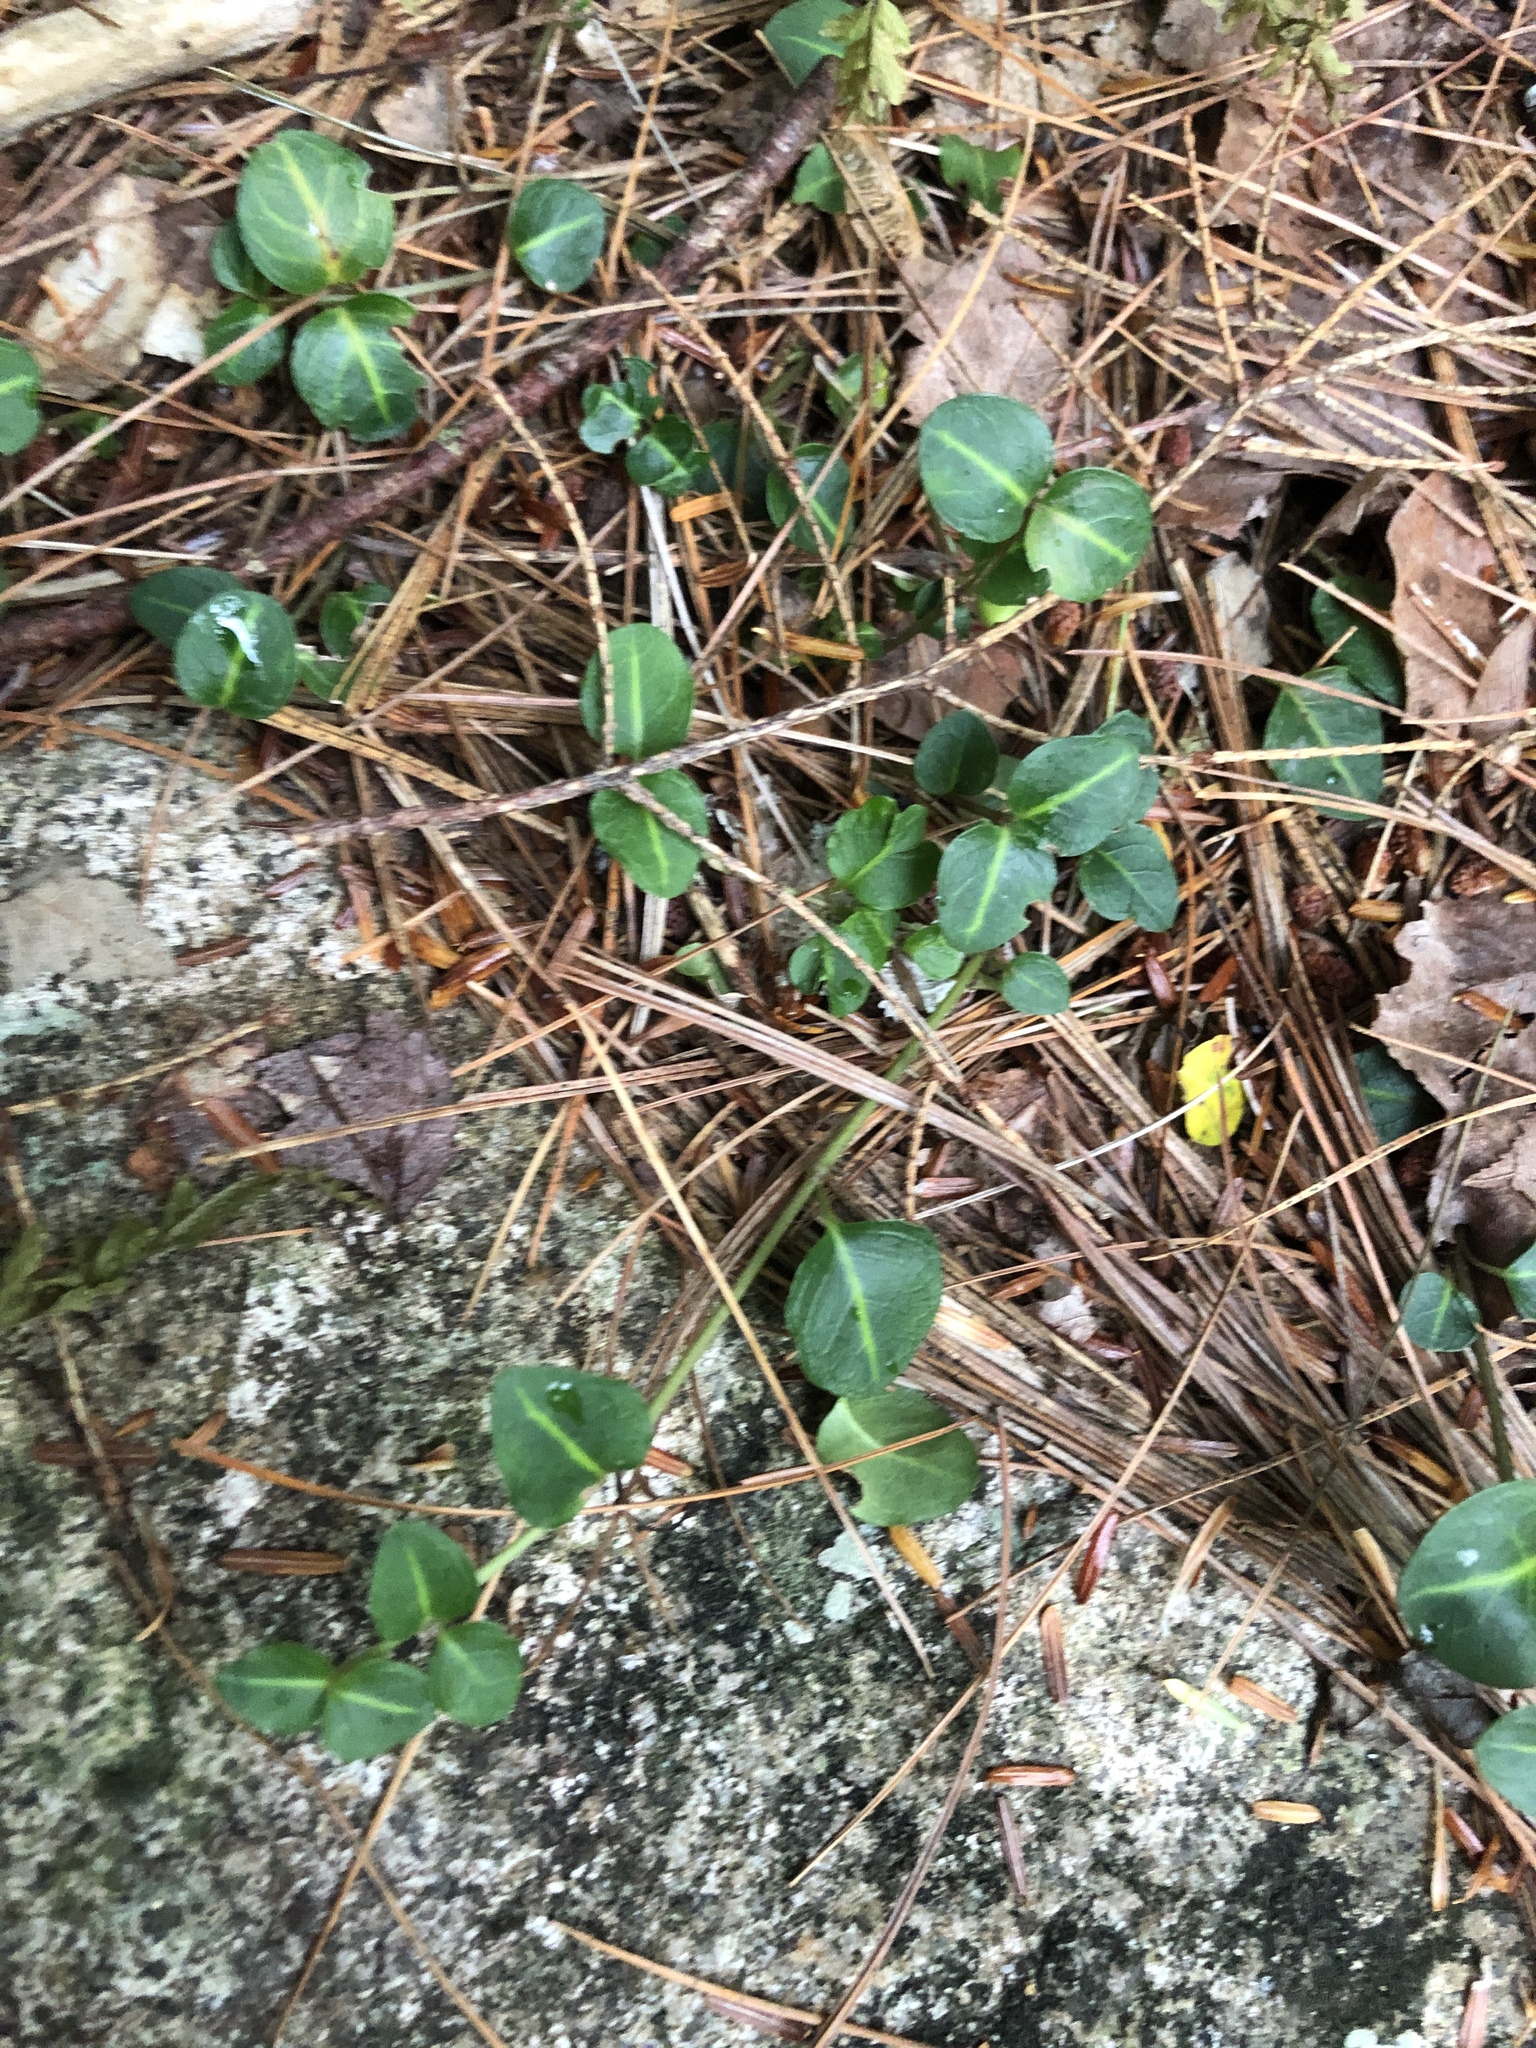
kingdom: Plantae
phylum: Tracheophyta
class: Magnoliopsida
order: Gentianales
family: Rubiaceae
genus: Mitchella
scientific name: Mitchella repens
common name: Partridge-berry
